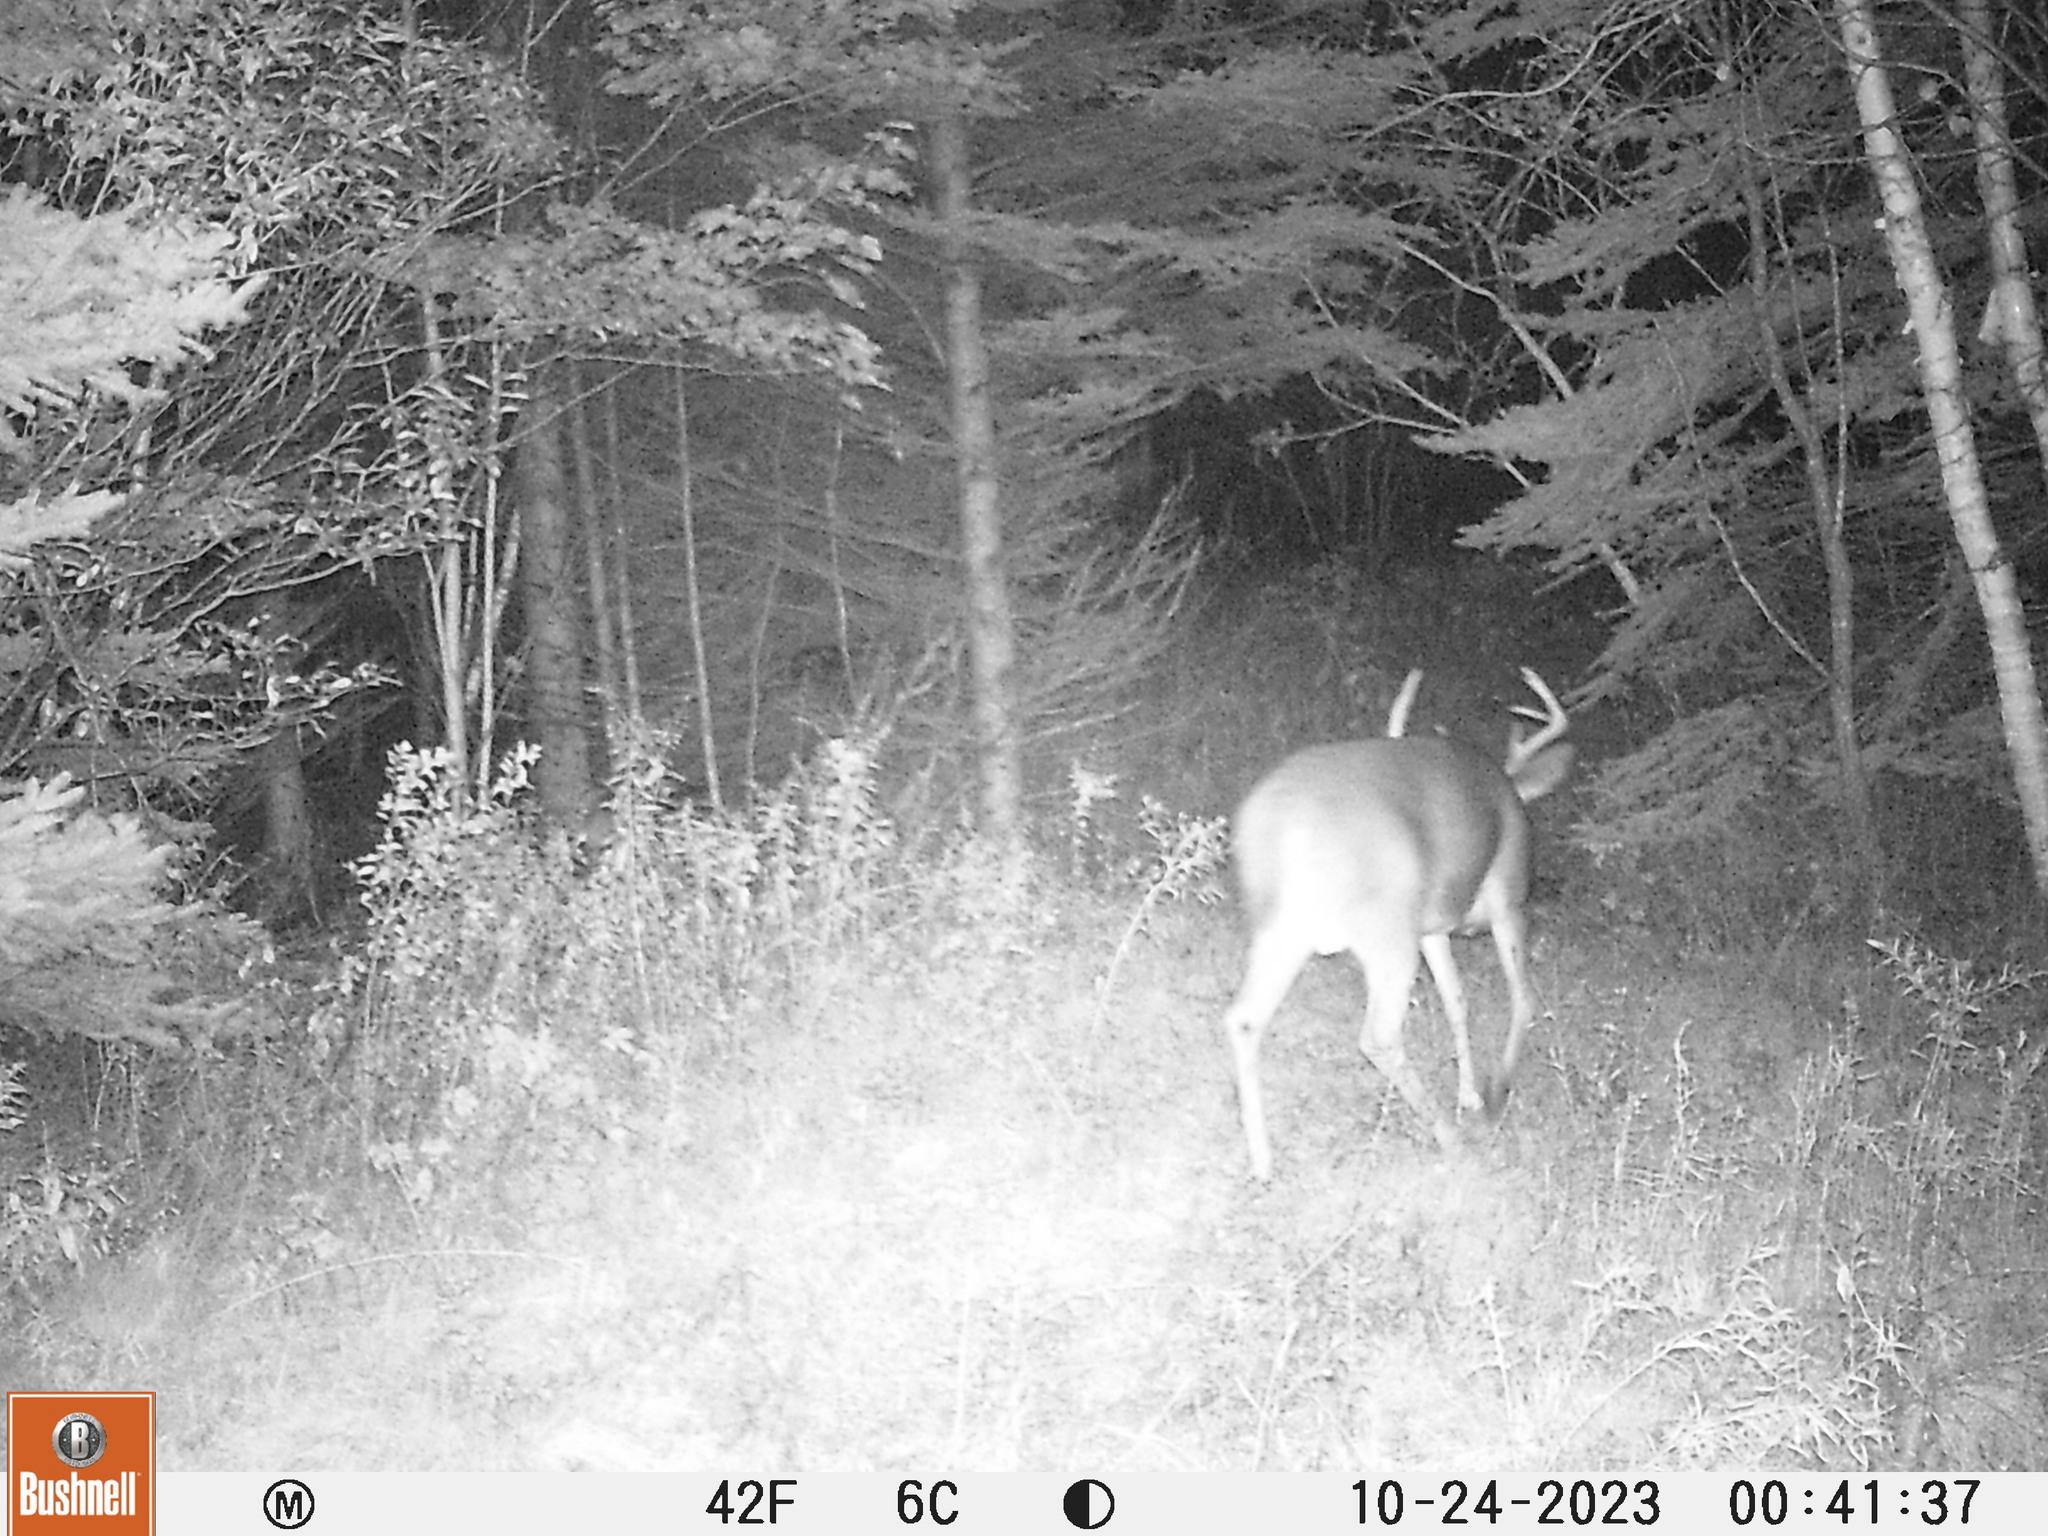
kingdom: Animalia
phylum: Chordata
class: Mammalia
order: Artiodactyla
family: Cervidae
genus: Odocoileus
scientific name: Odocoileus virginianus
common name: White-tailed deer
